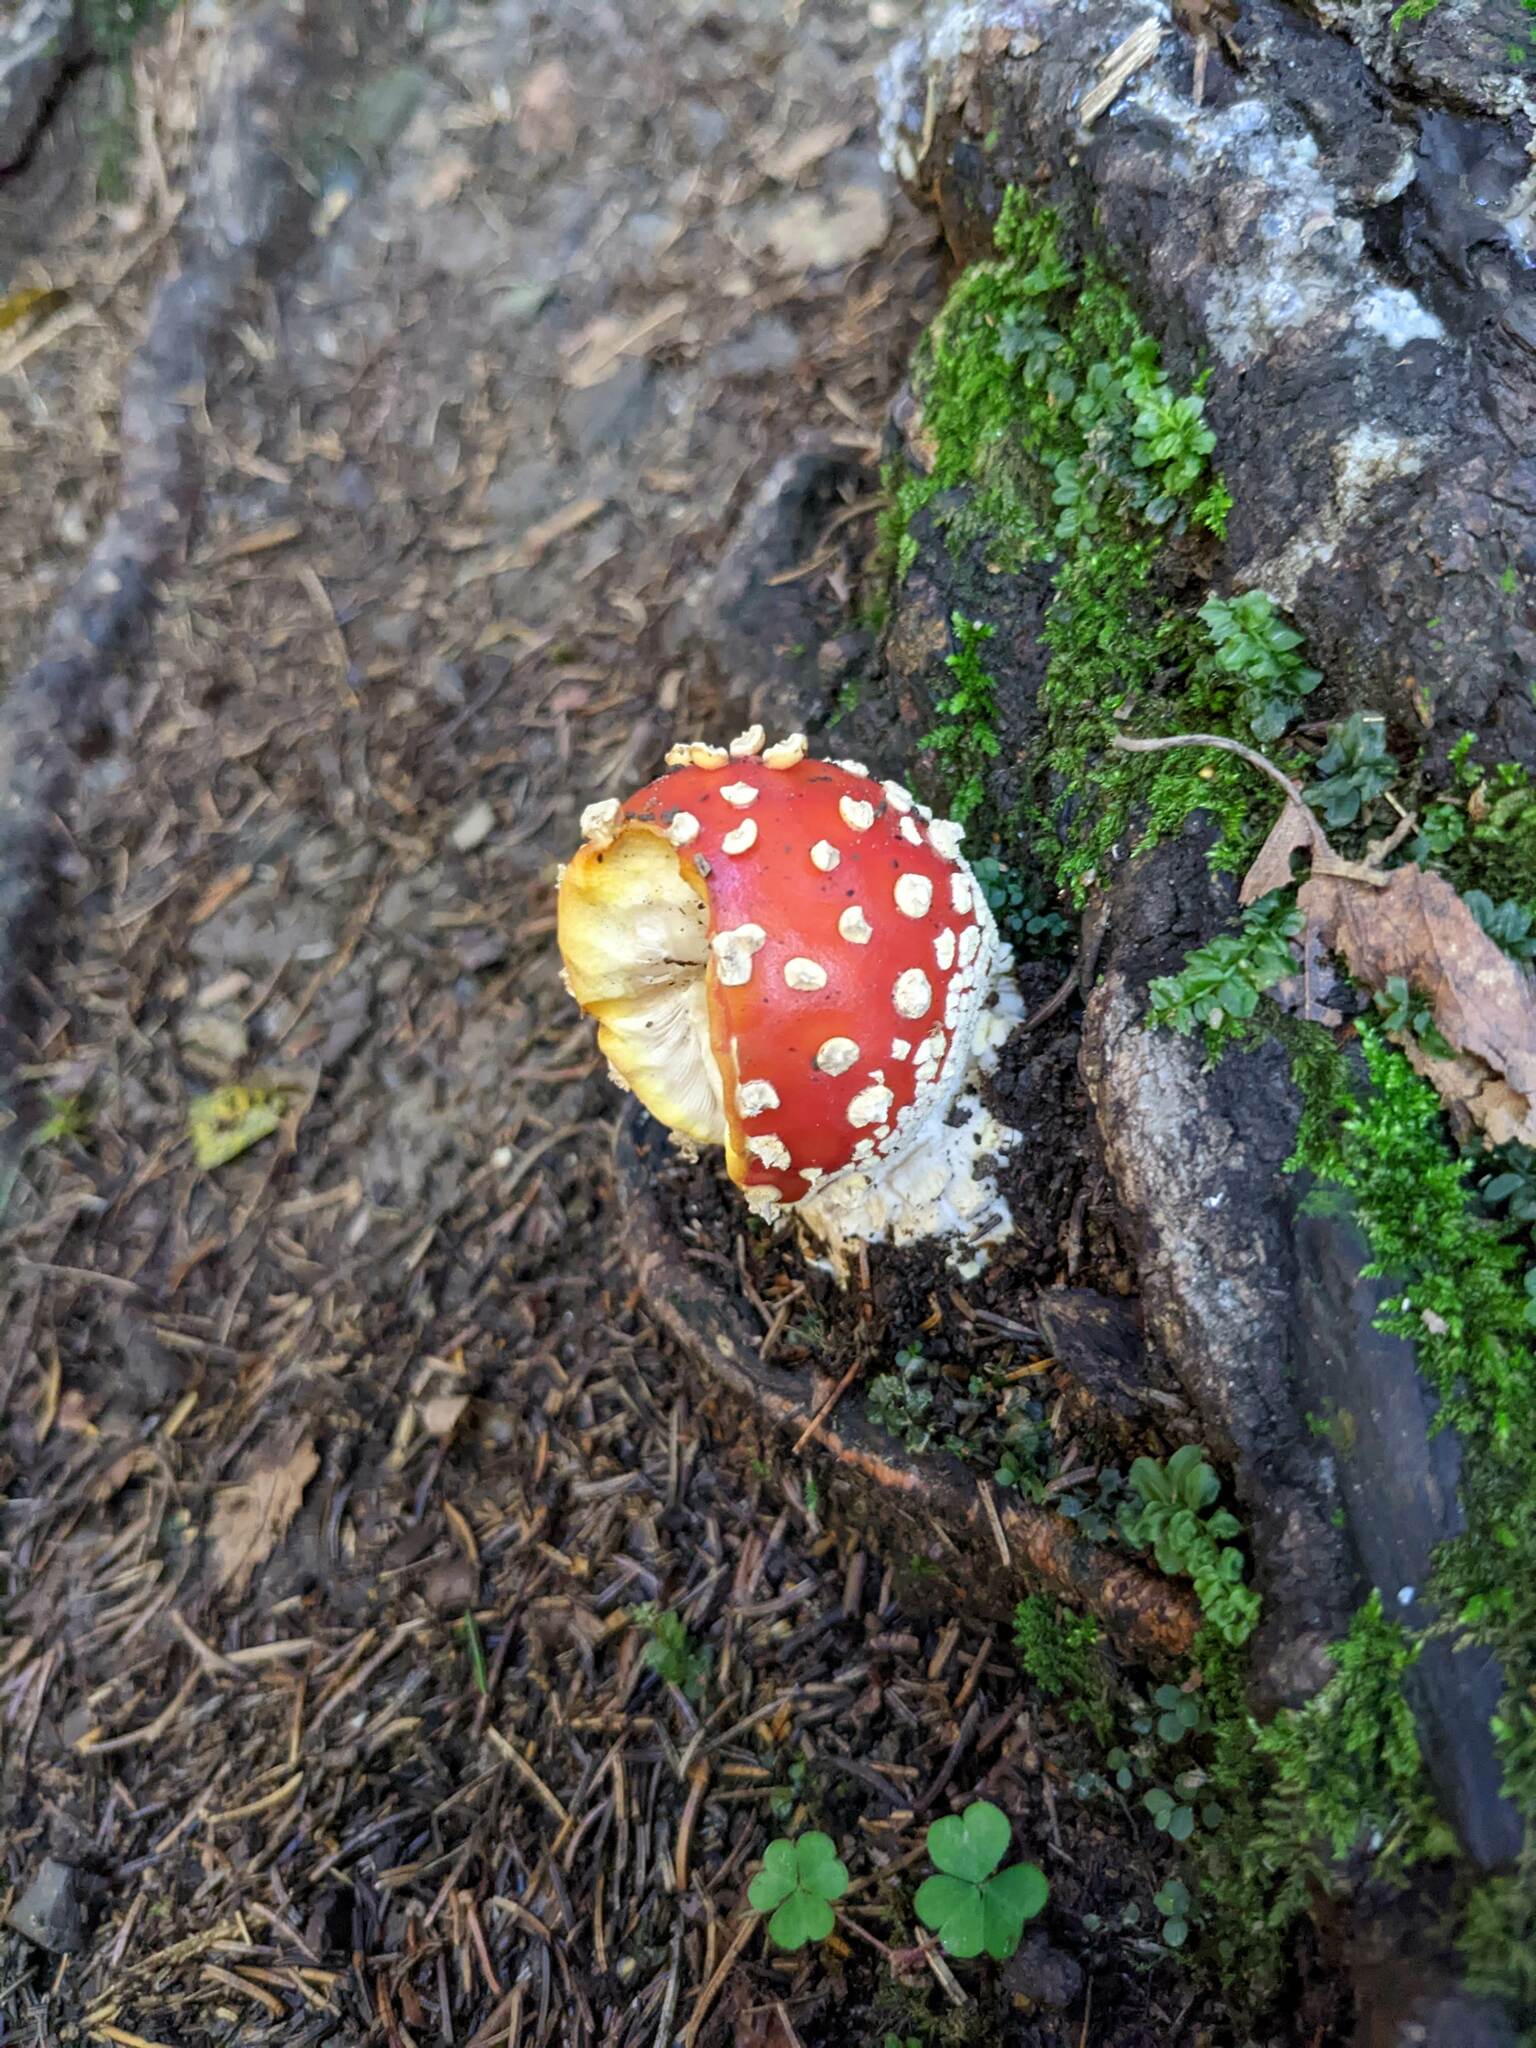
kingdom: Fungi
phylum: Basidiomycota
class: Agaricomycetes
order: Agaricales
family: Amanitaceae
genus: Amanita
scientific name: Amanita muscaria
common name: Fly agaric
